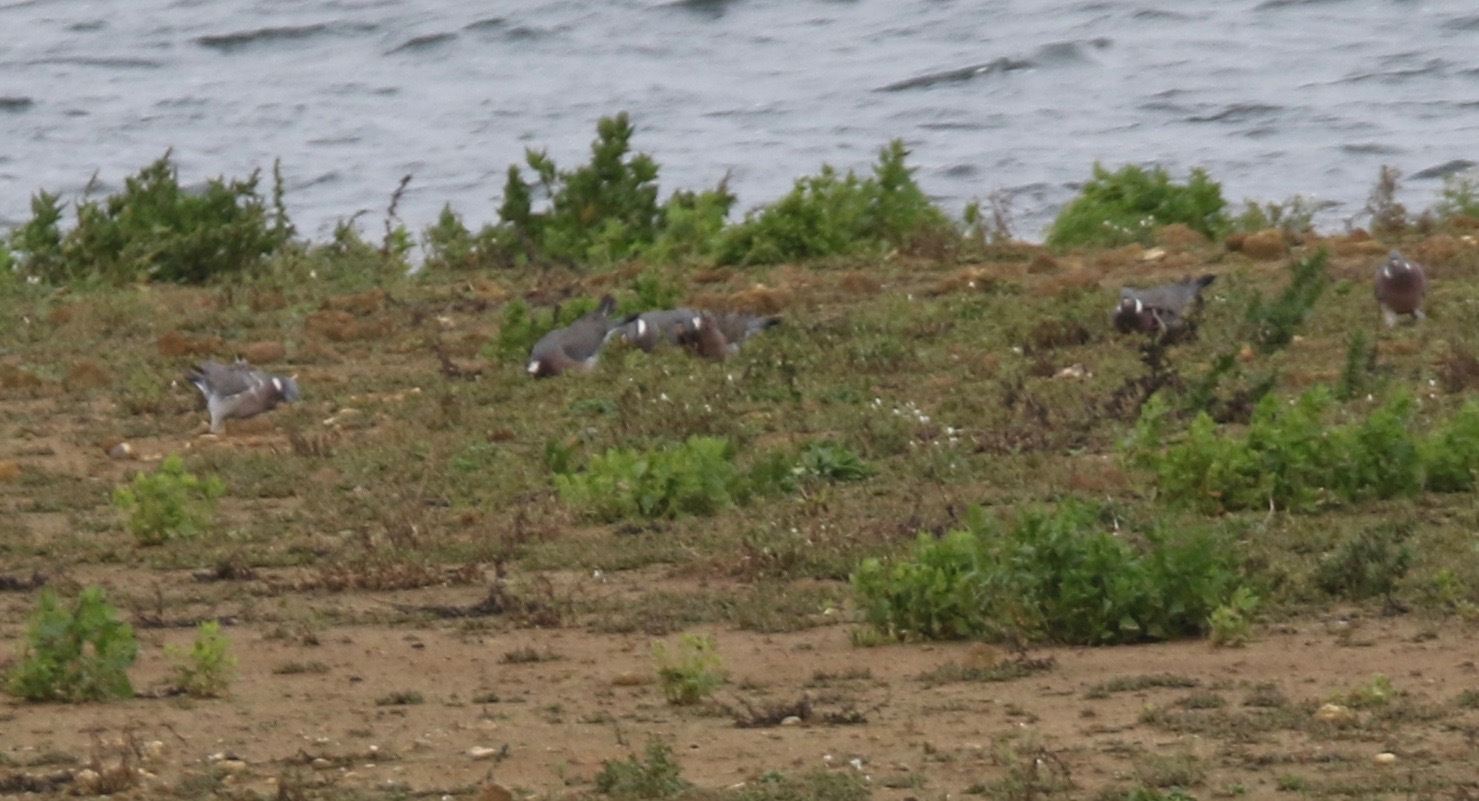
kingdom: Animalia
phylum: Chordata
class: Aves
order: Columbiformes
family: Columbidae
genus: Columba
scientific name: Columba palumbus
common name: Common wood pigeon
